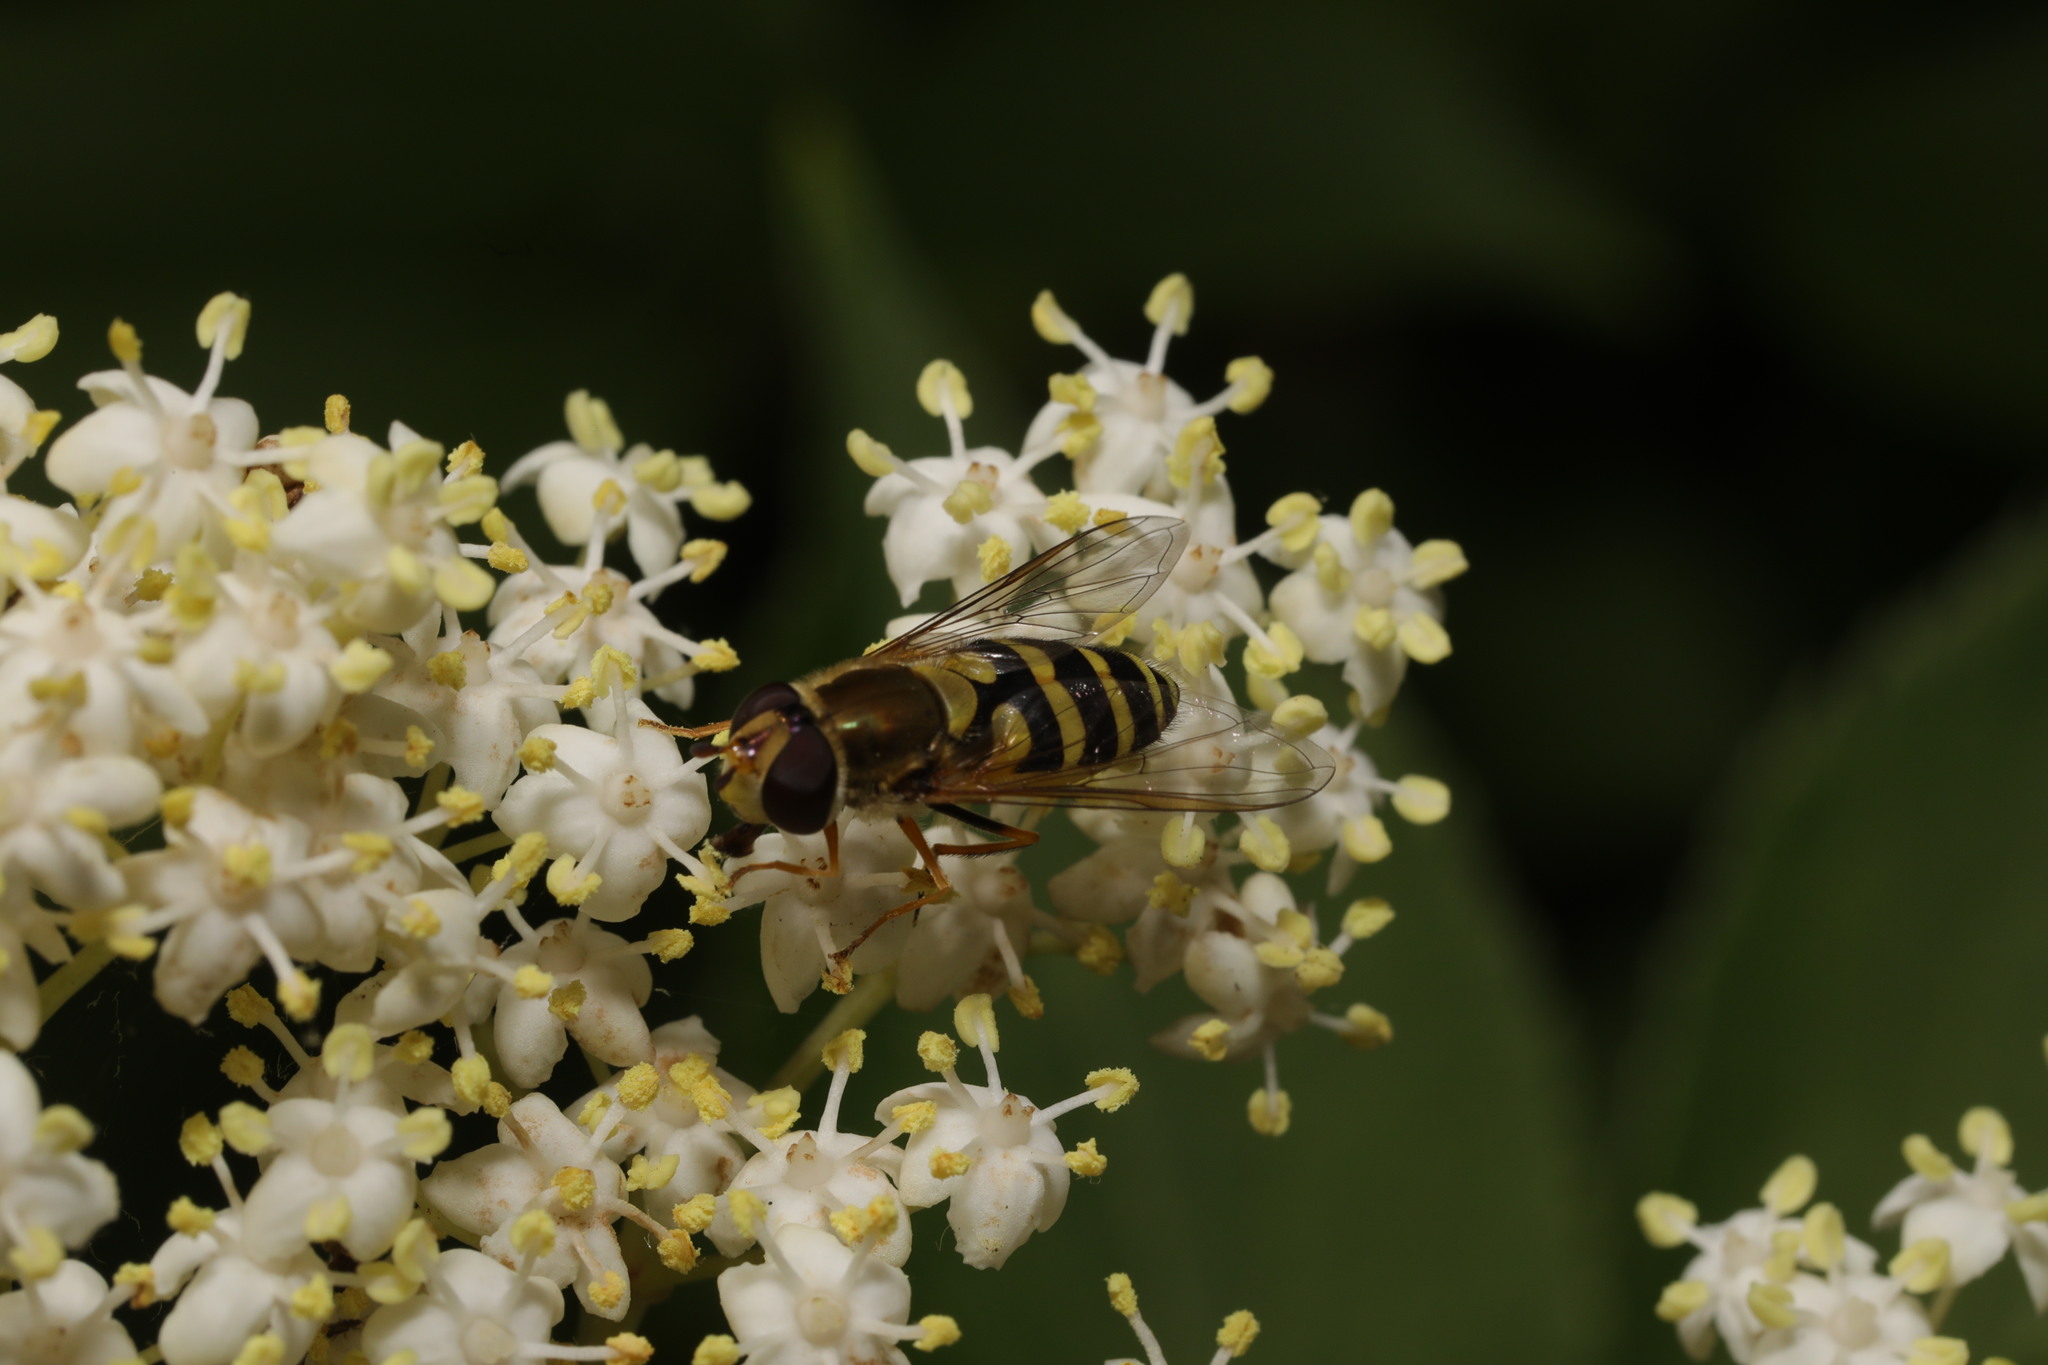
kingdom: Animalia
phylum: Arthropoda
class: Insecta
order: Diptera
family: Syrphidae
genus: Syrphus
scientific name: Syrphus
